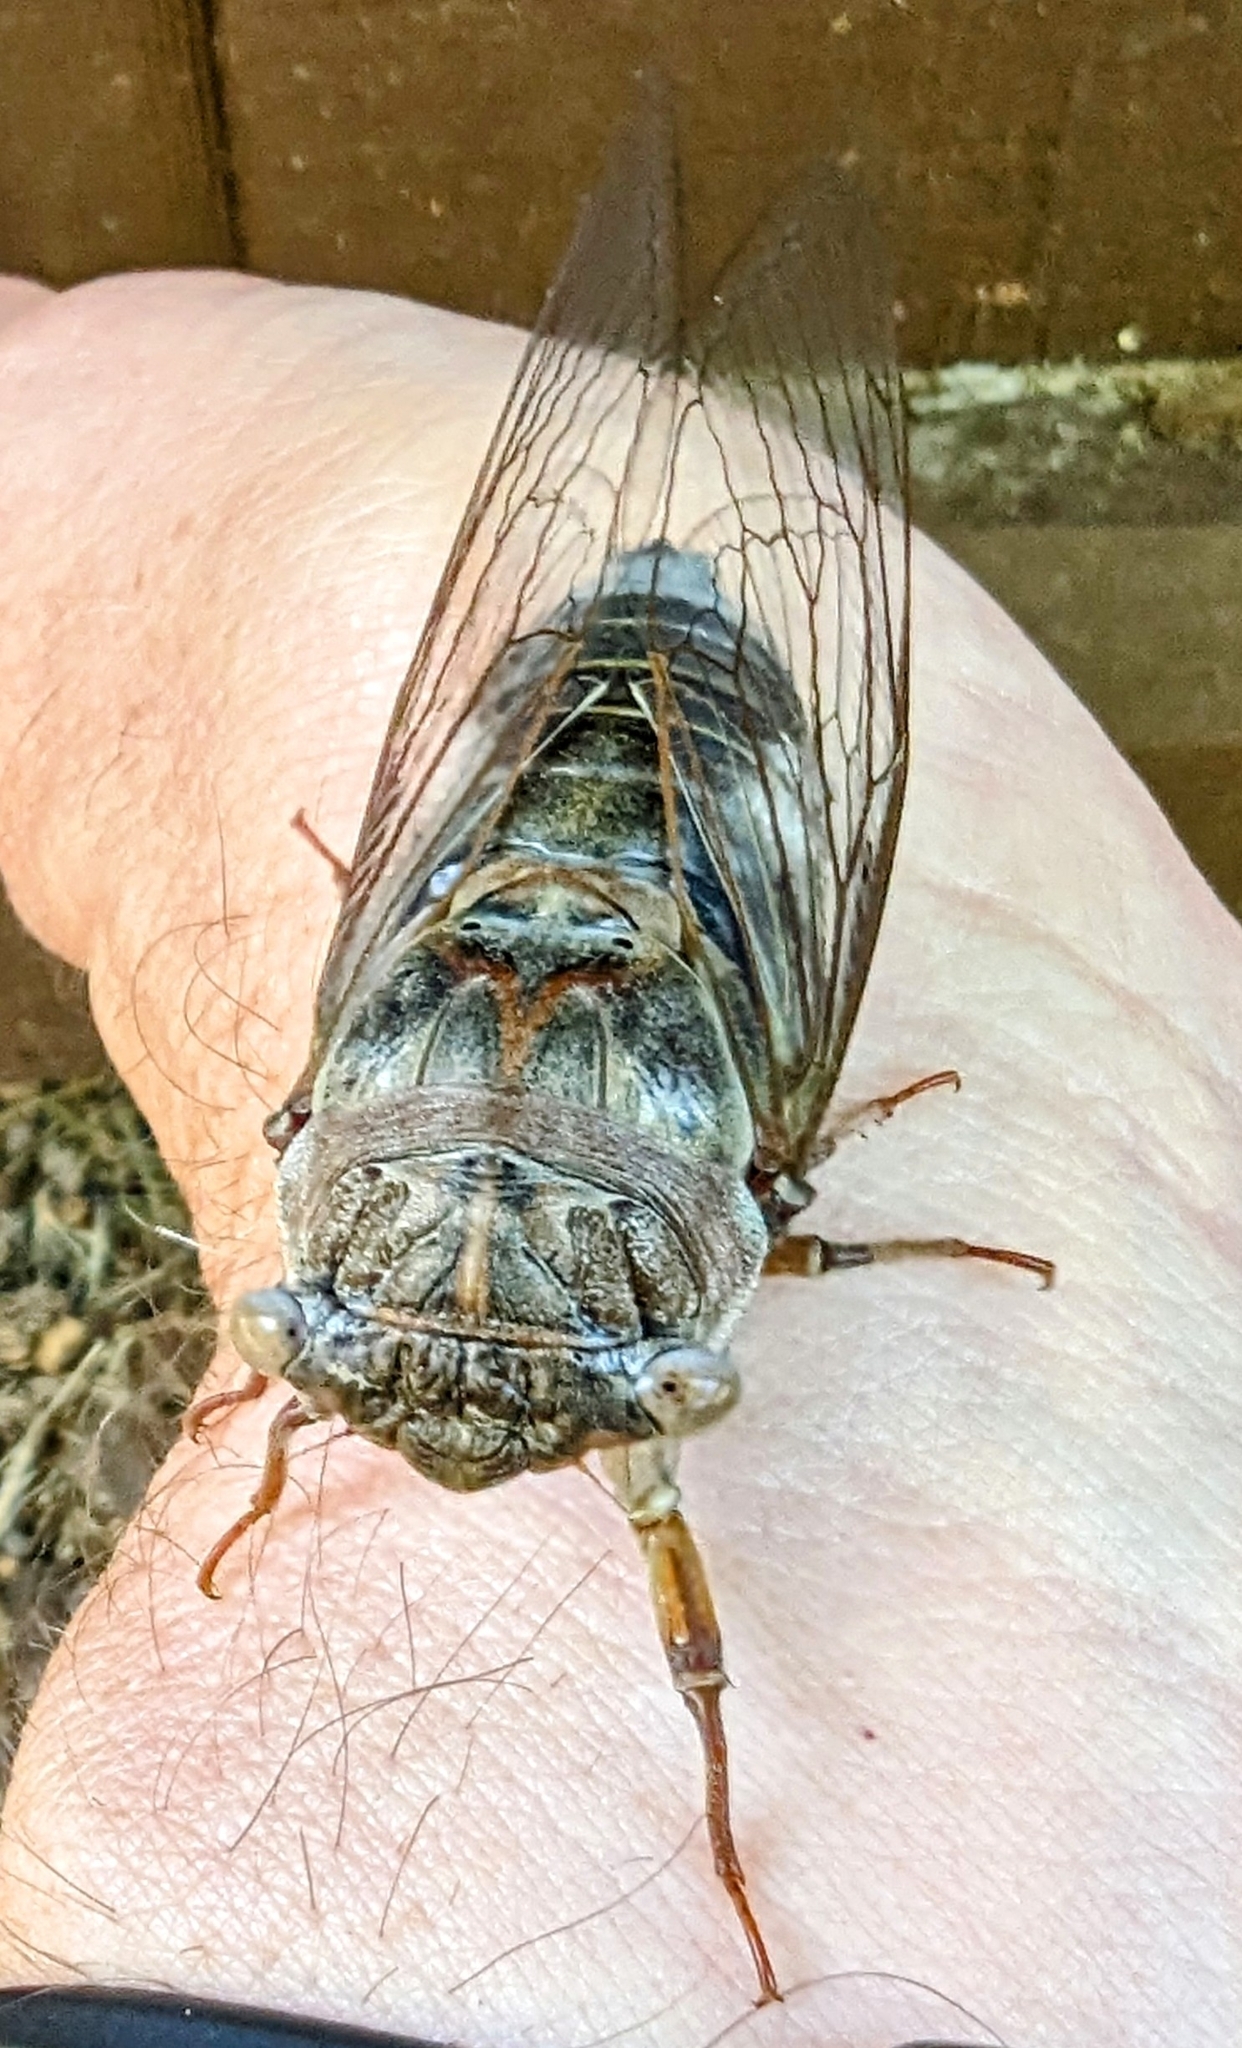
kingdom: Animalia
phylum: Arthropoda
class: Insecta
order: Hemiptera
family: Cicadidae
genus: Diceroprocta
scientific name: Diceroprocta grossa
